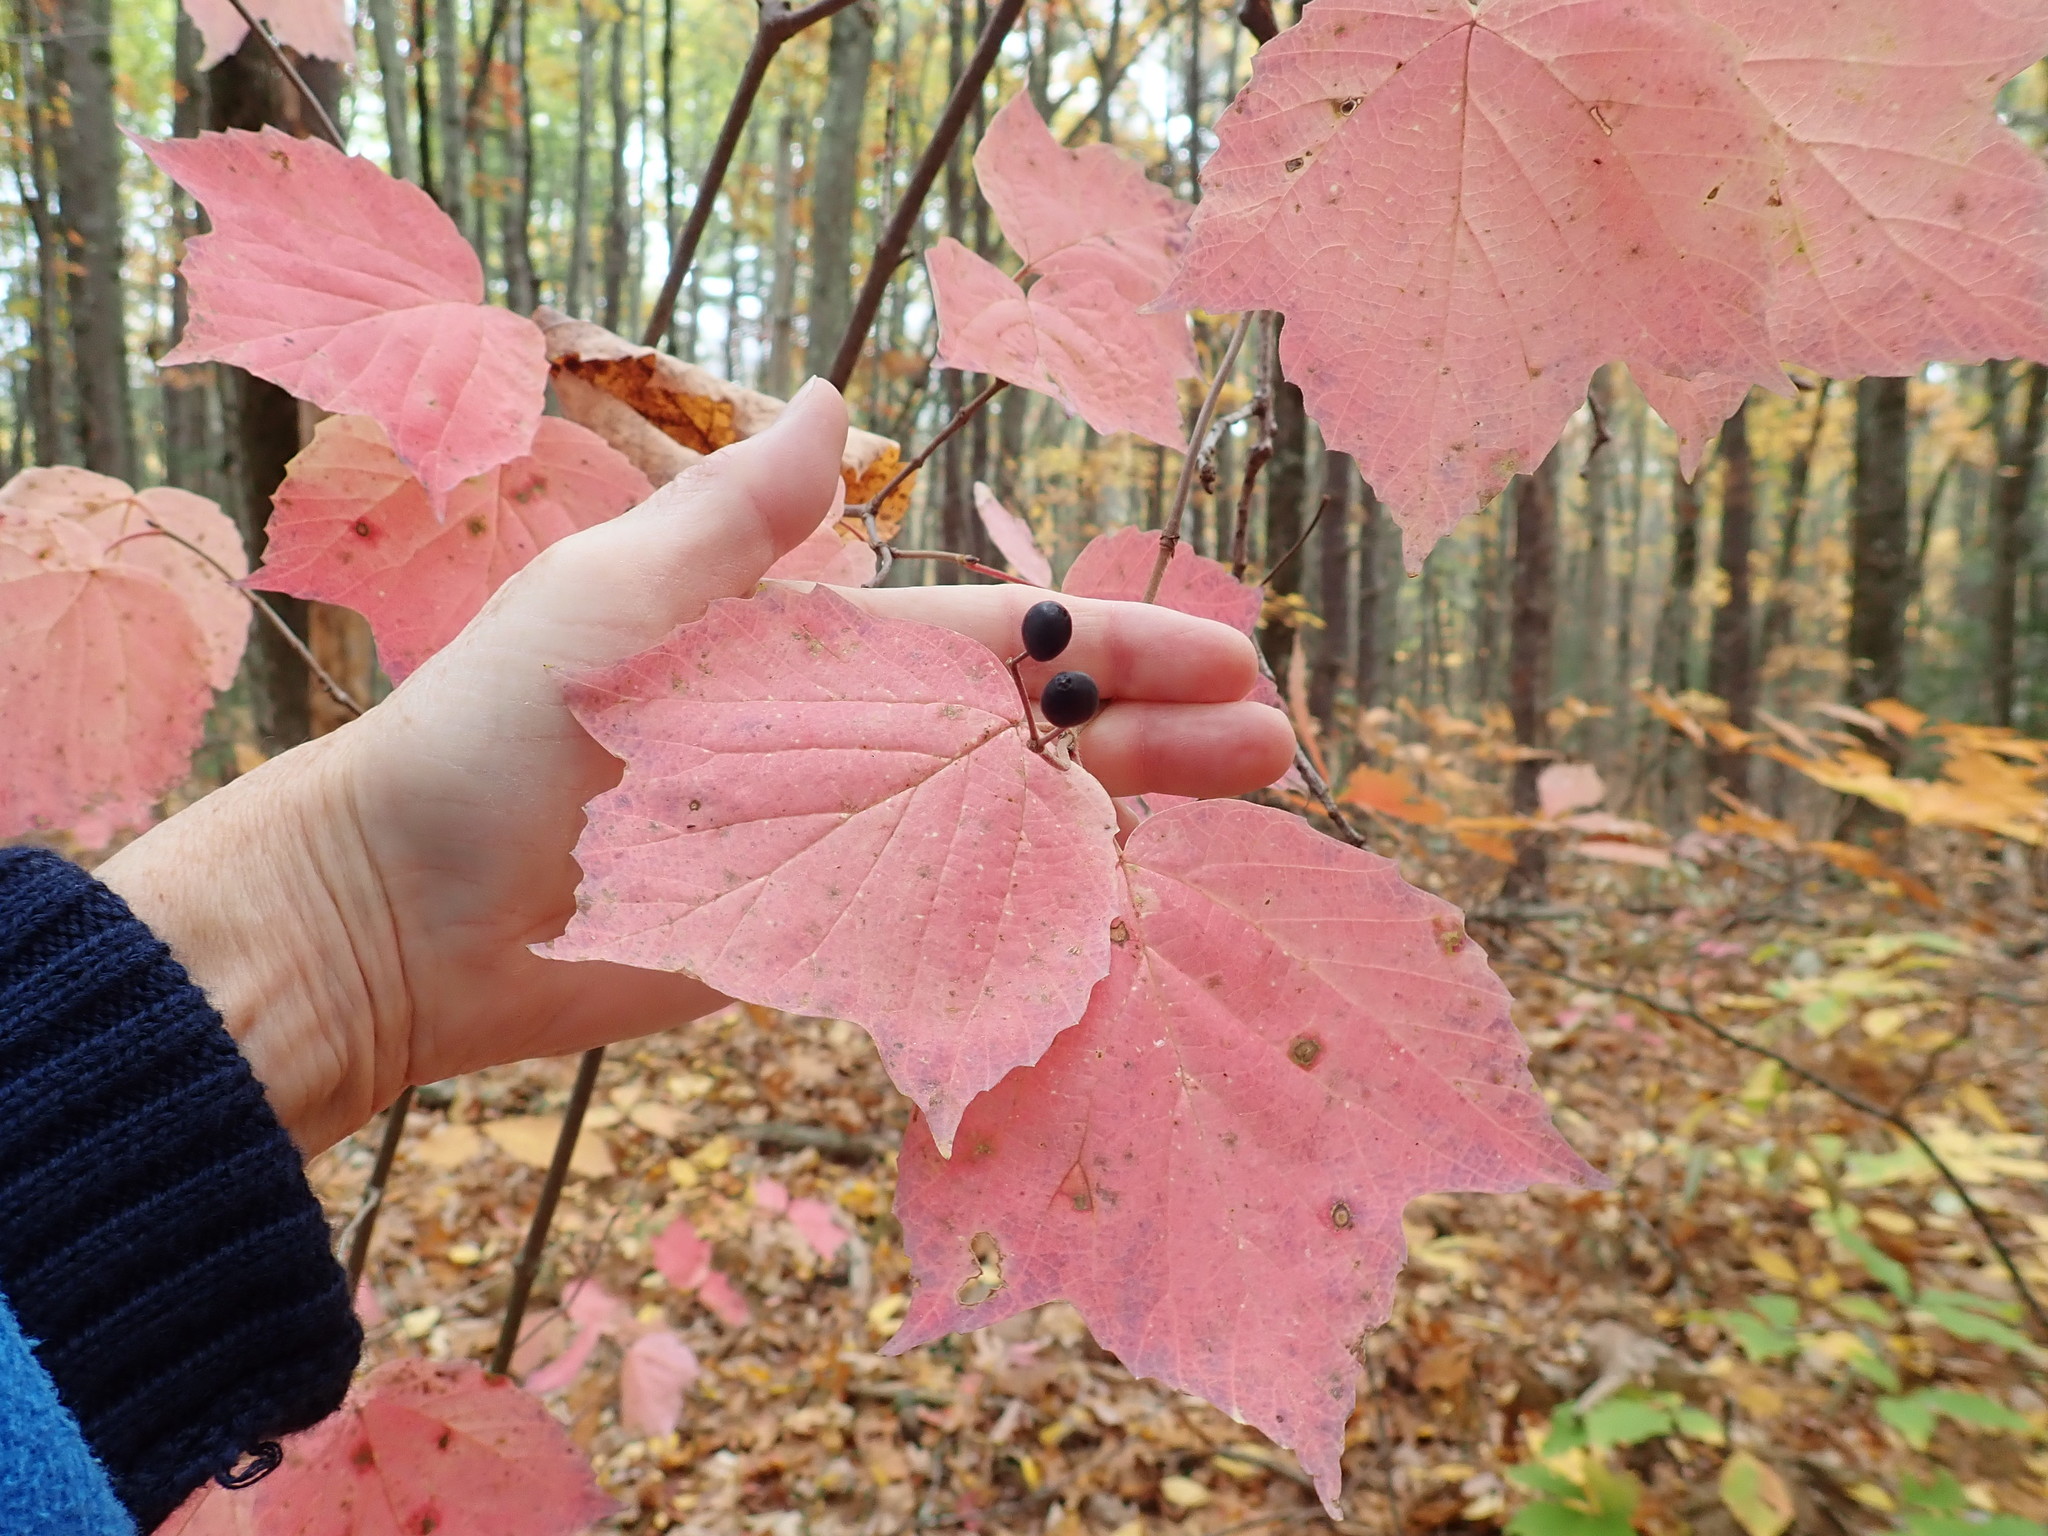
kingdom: Plantae
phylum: Tracheophyta
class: Magnoliopsida
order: Dipsacales
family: Viburnaceae
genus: Viburnum
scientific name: Viburnum acerifolium
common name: Dockmackie
